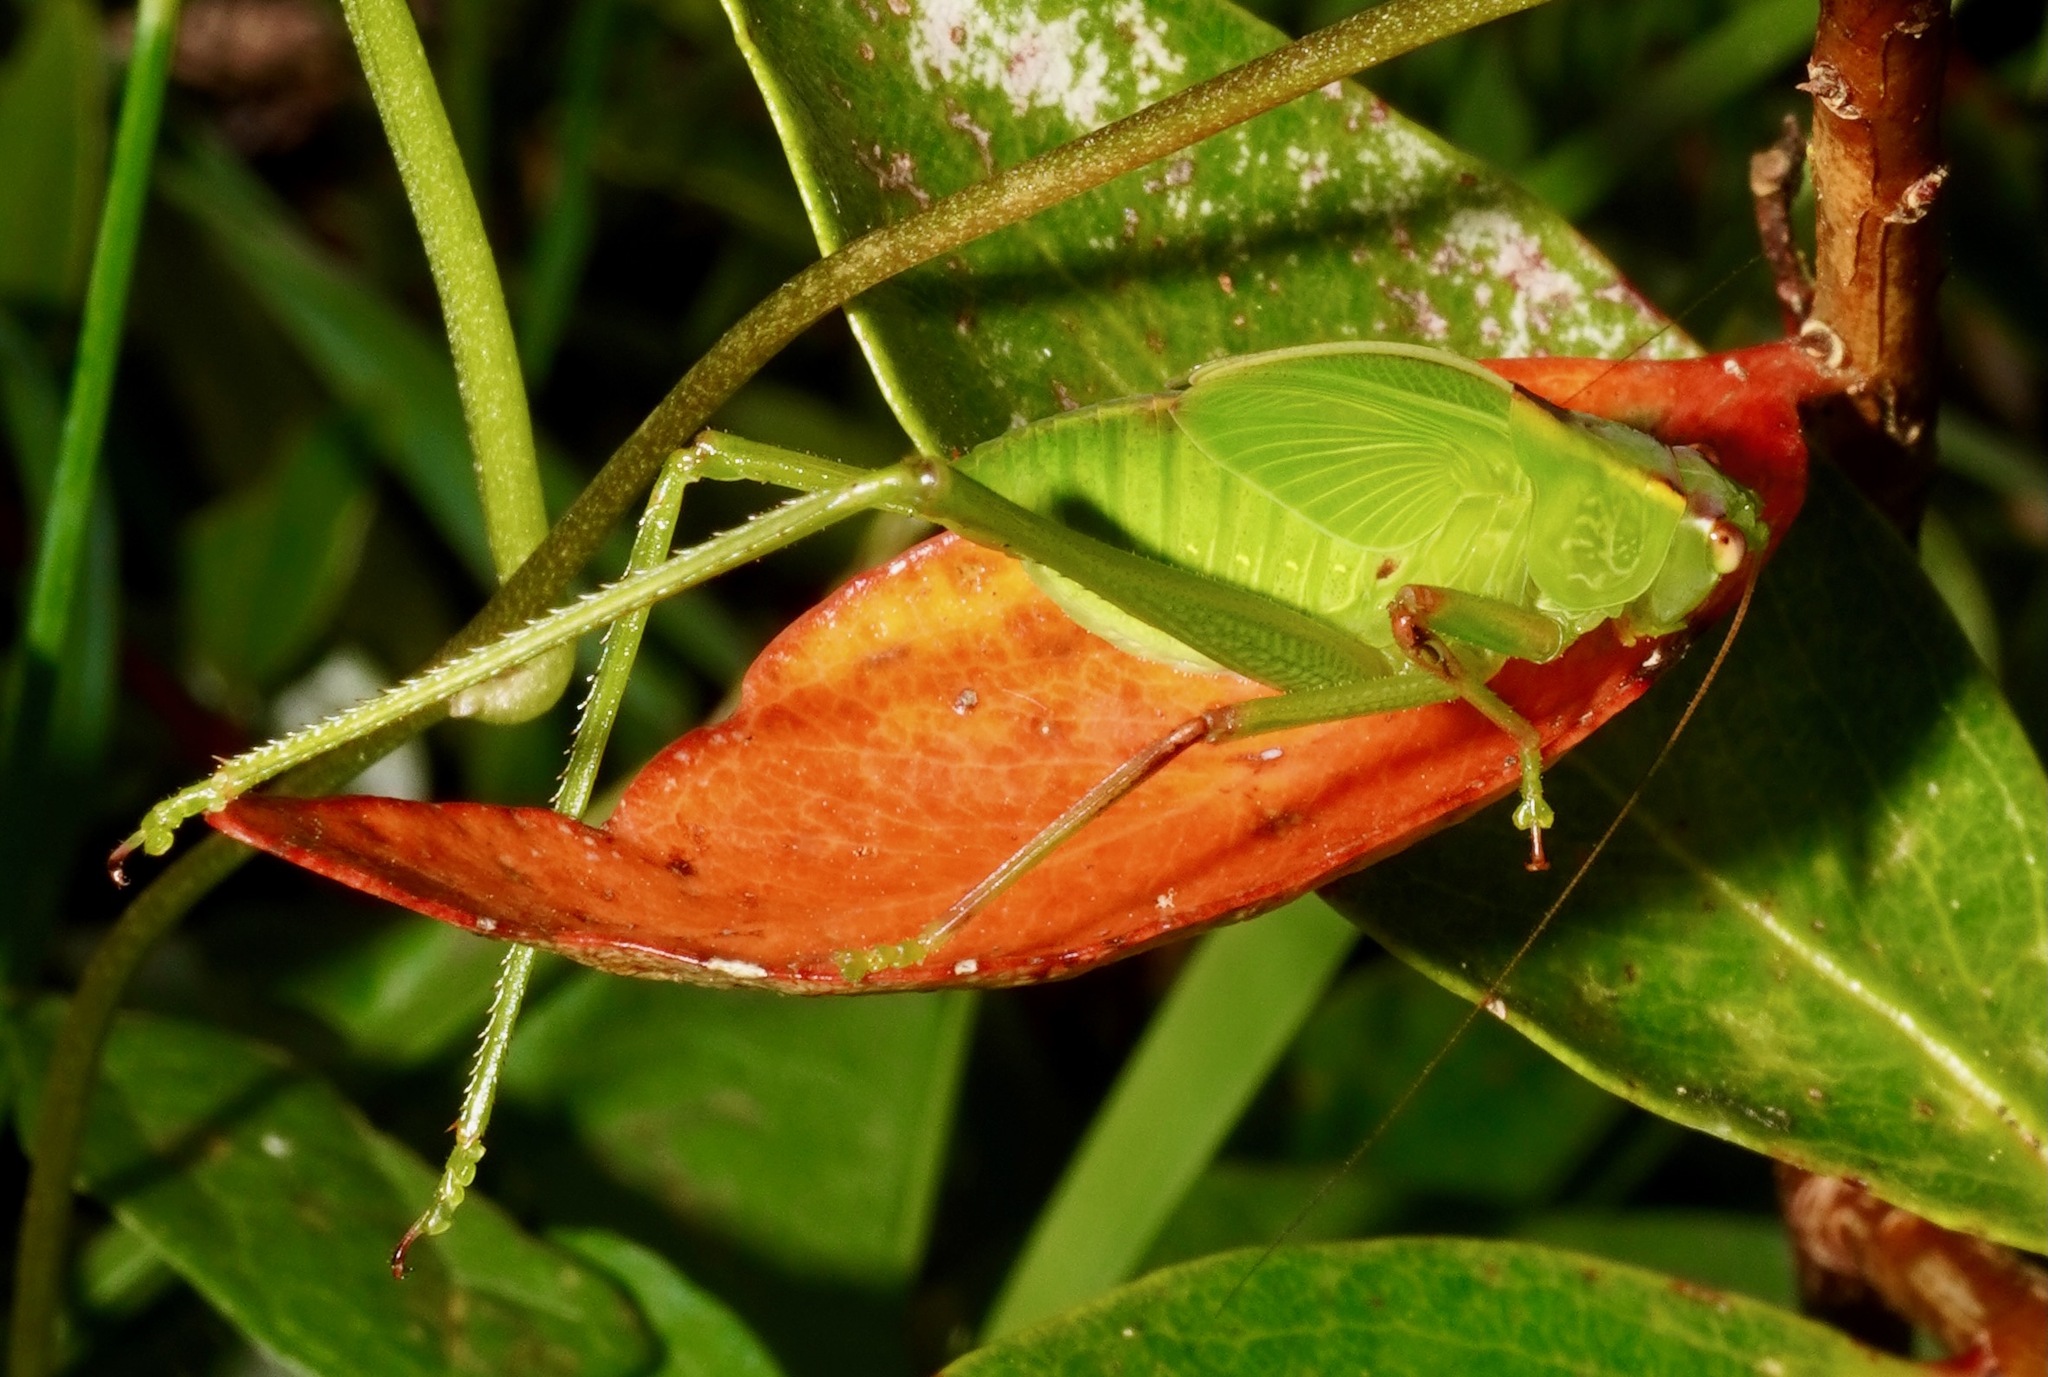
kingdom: Animalia
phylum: Arthropoda
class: Insecta
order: Orthoptera
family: Tettigoniidae
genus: Caedicia
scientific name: Caedicia simplex
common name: Common garden katydid
